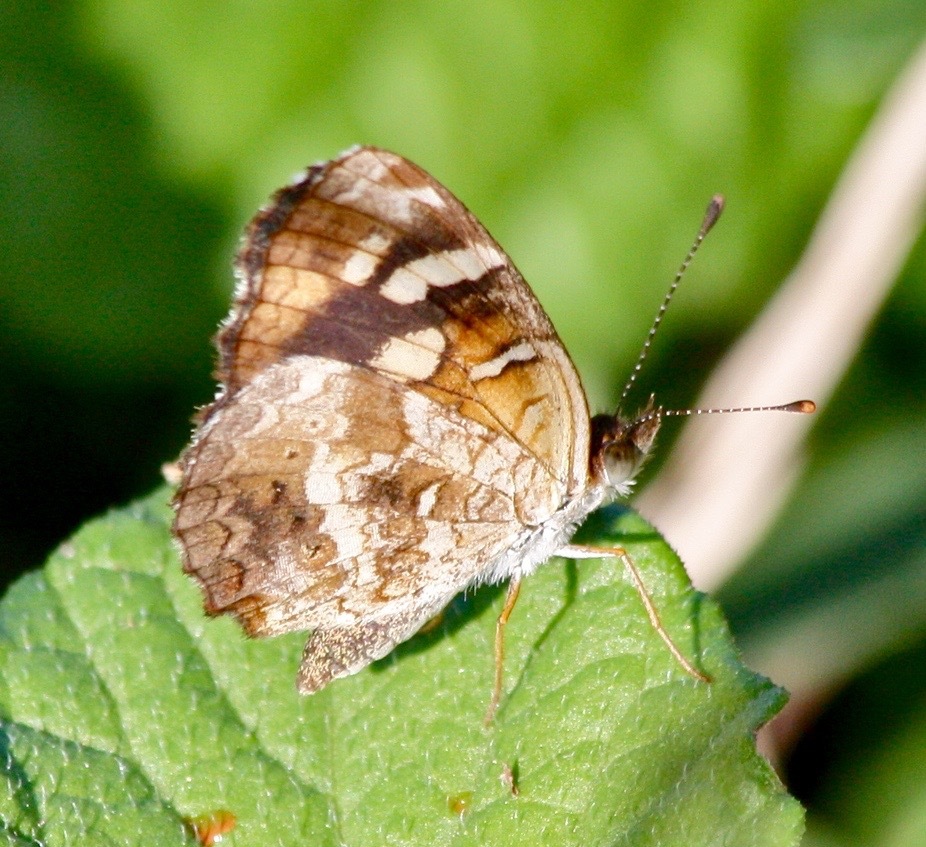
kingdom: Animalia
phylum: Arthropoda
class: Insecta
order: Lepidoptera
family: Nymphalidae
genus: Anthanassa
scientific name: Anthanassa drusilla
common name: Orange-patched crescent
